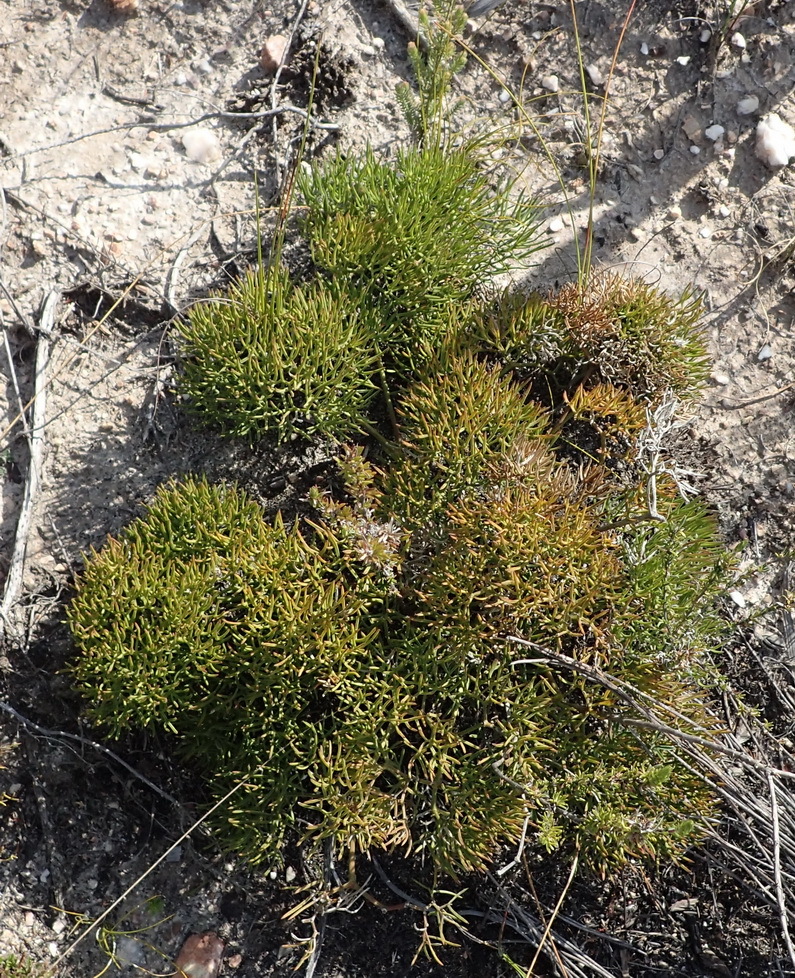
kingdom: Plantae
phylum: Tracheophyta
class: Magnoliopsida
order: Apiales
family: Apiaceae
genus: Nanobubon
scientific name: Nanobubon capillaceum
